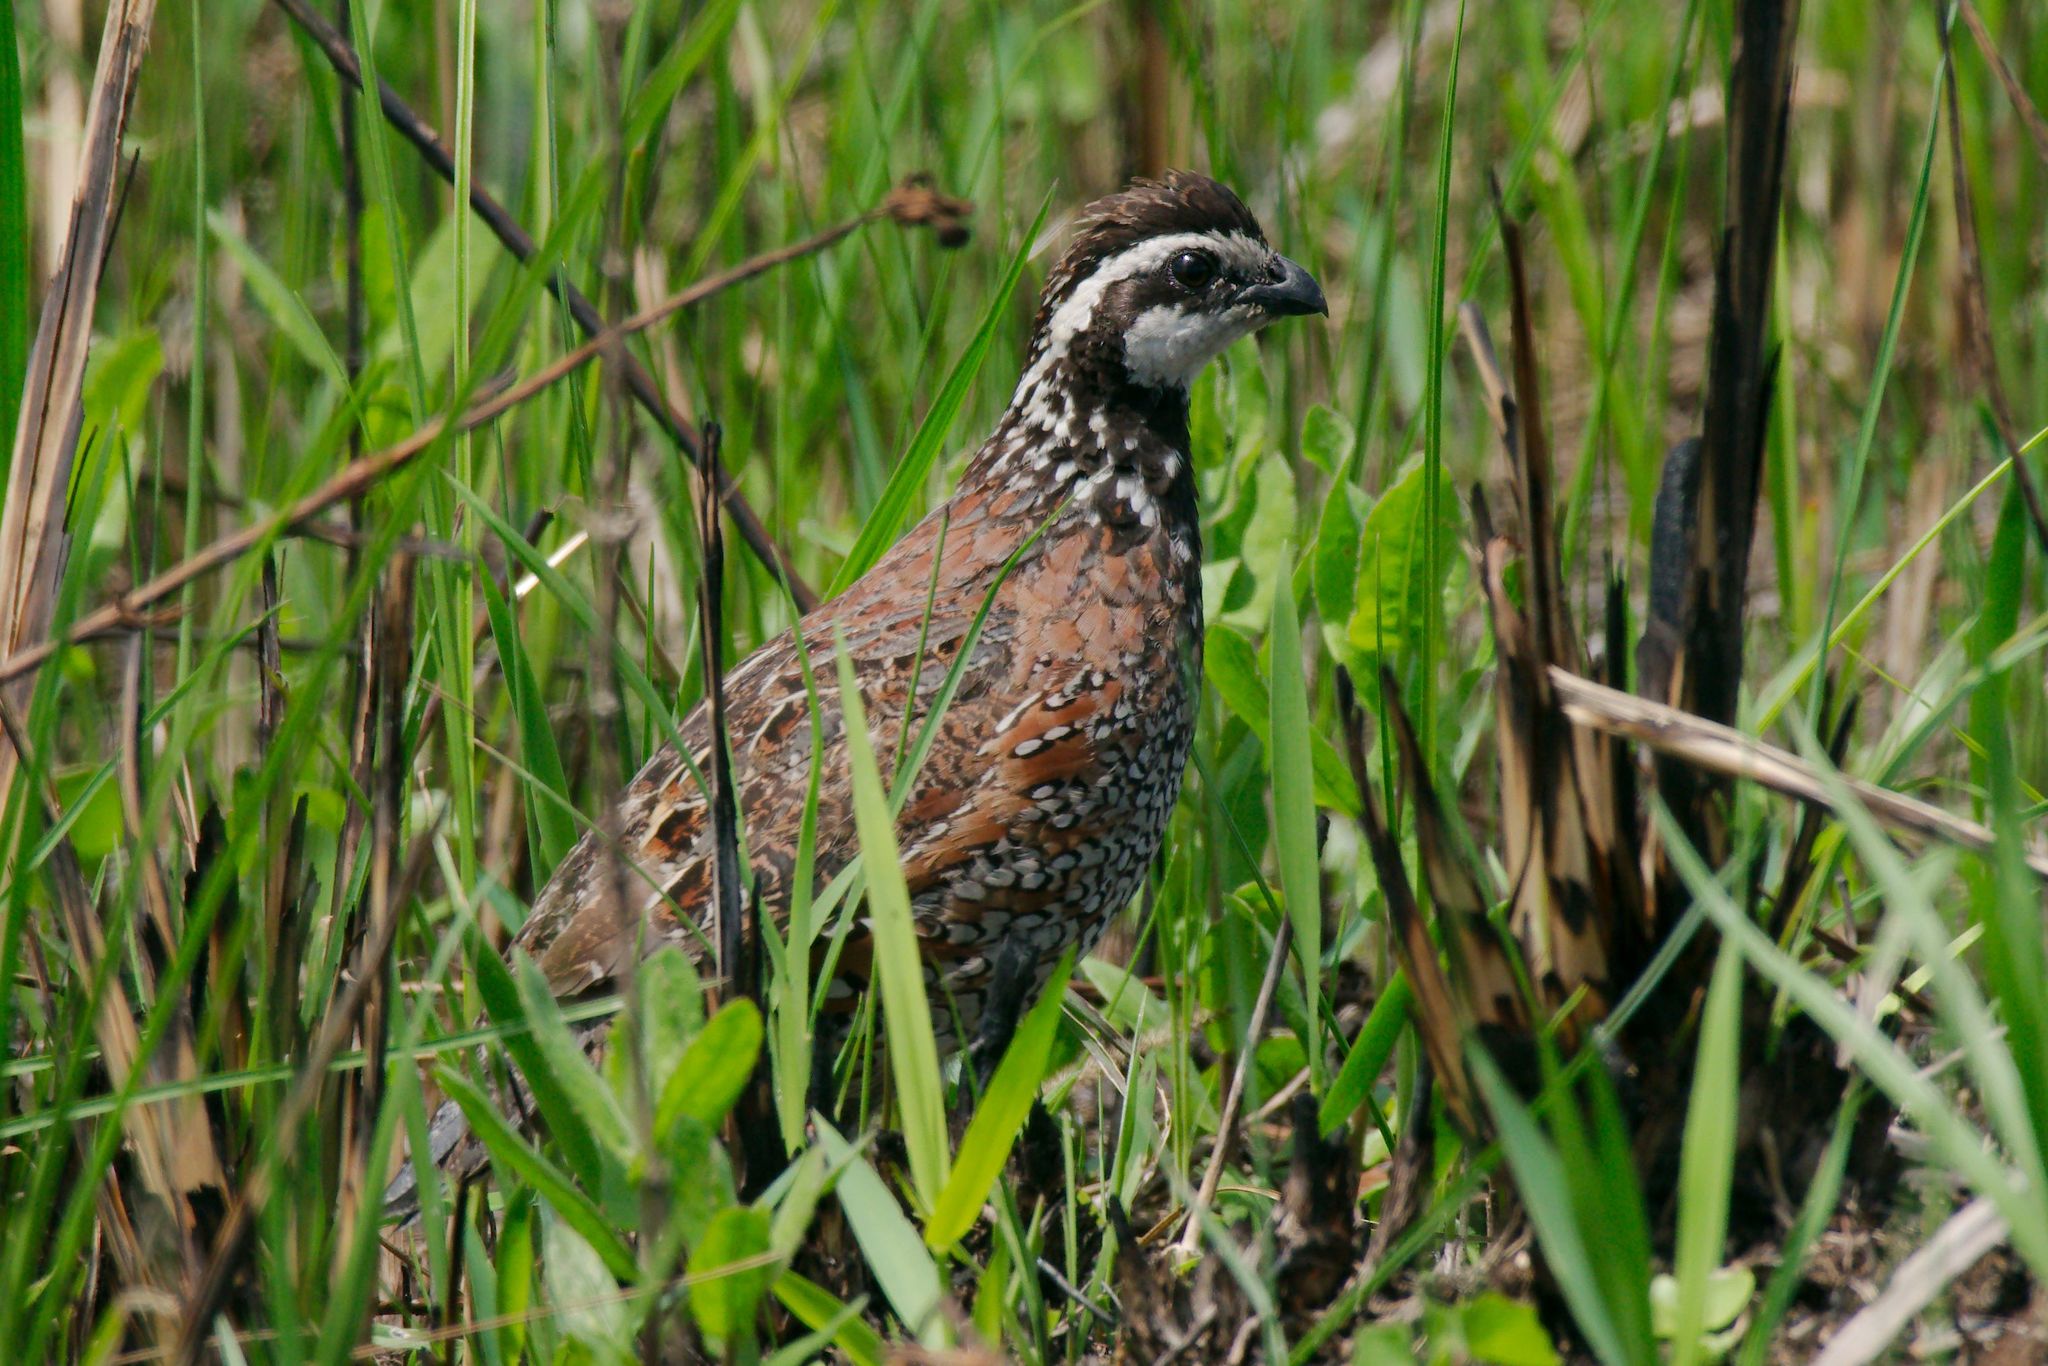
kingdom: Animalia
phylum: Chordata
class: Aves
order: Galliformes
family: Odontophoridae
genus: Colinus
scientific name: Colinus virginianus
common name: Northern bobwhite
